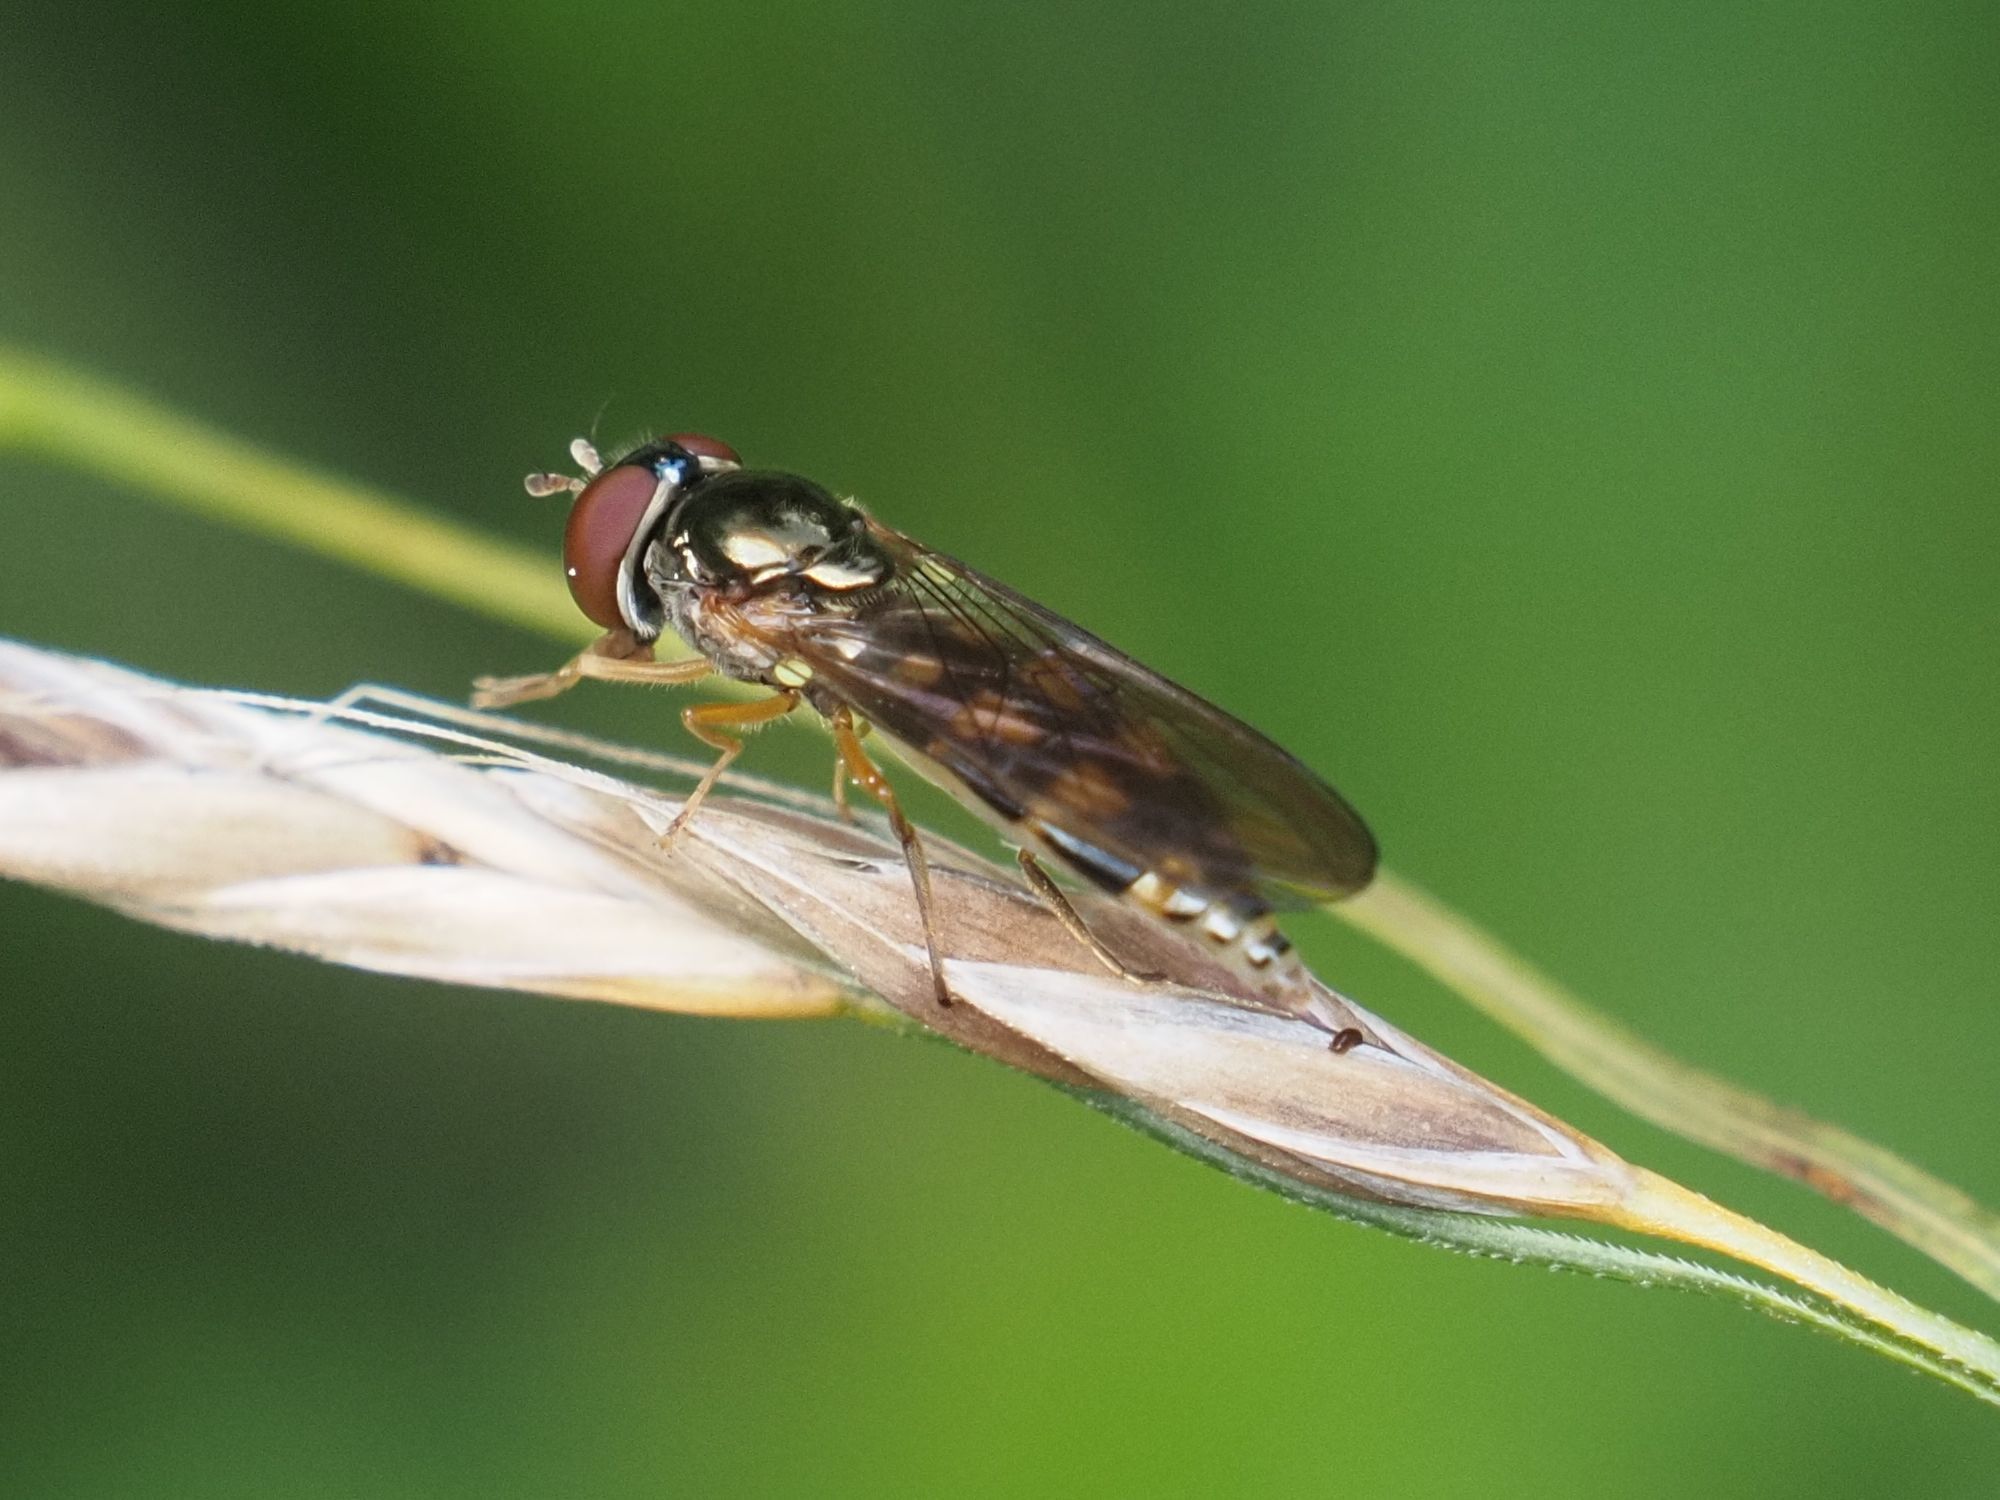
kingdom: Animalia
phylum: Arthropoda
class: Insecta
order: Diptera
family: Syrphidae
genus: Melanostoma
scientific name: Melanostoma scalare
